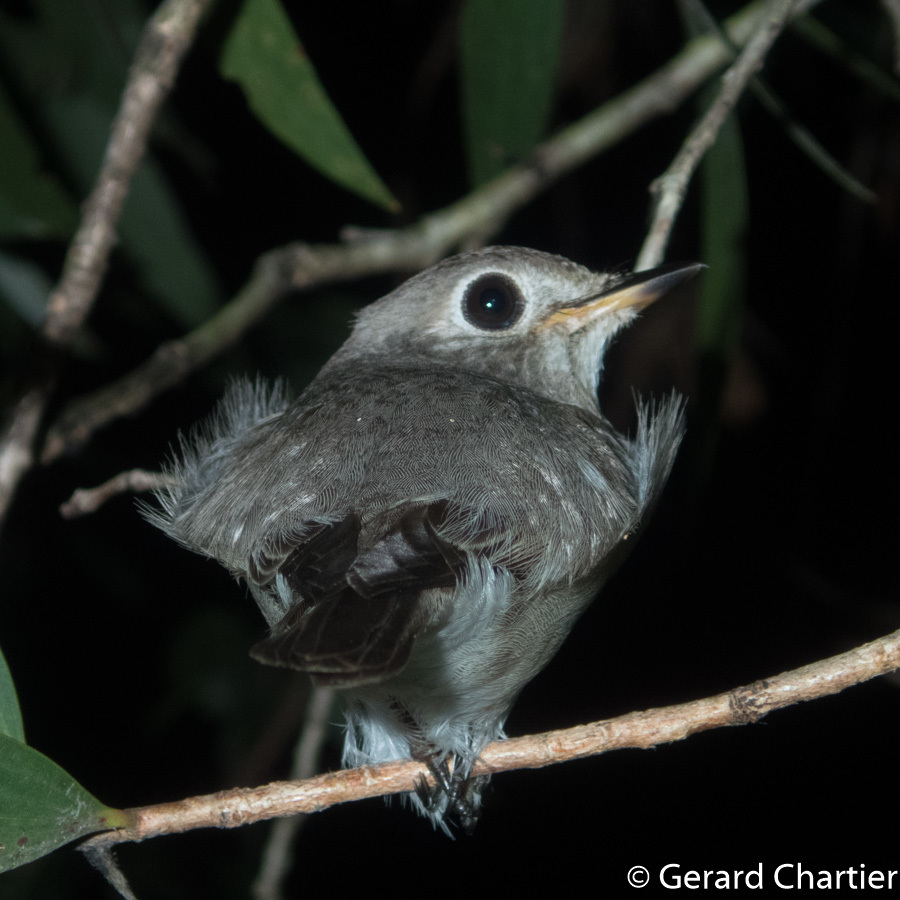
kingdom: Animalia
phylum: Chordata
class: Aves
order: Passeriformes
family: Muscicapidae
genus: Muscicapa
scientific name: Muscicapa latirostris
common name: Asian brown flycatcher
